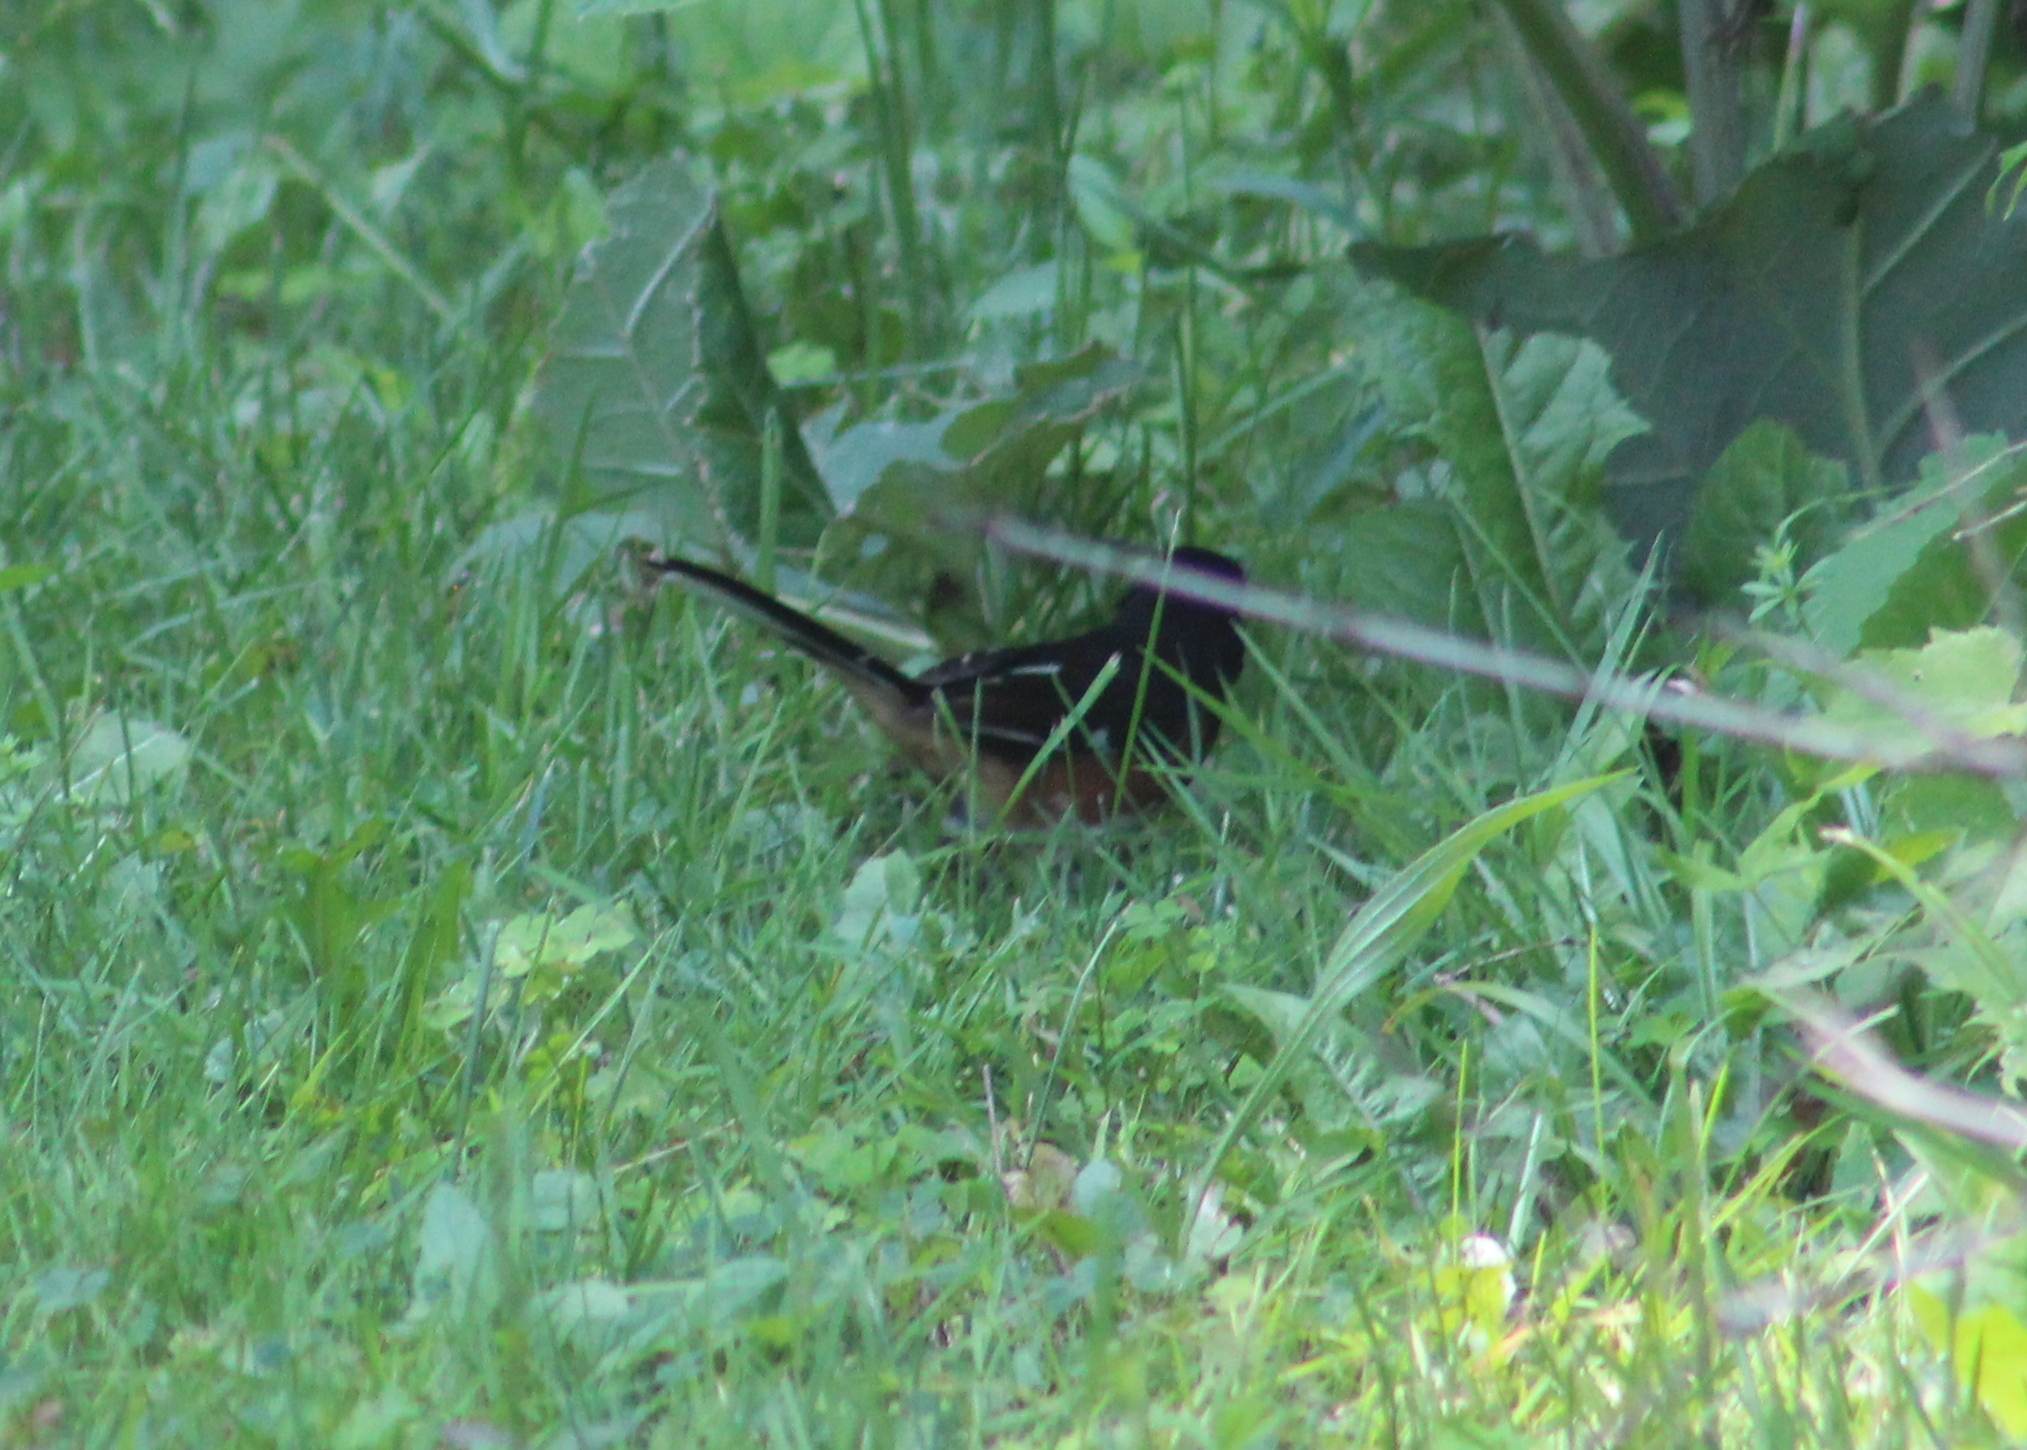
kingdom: Animalia
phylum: Chordata
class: Aves
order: Passeriformes
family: Passerellidae
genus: Pipilo
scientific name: Pipilo erythrophthalmus
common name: Eastern towhee
